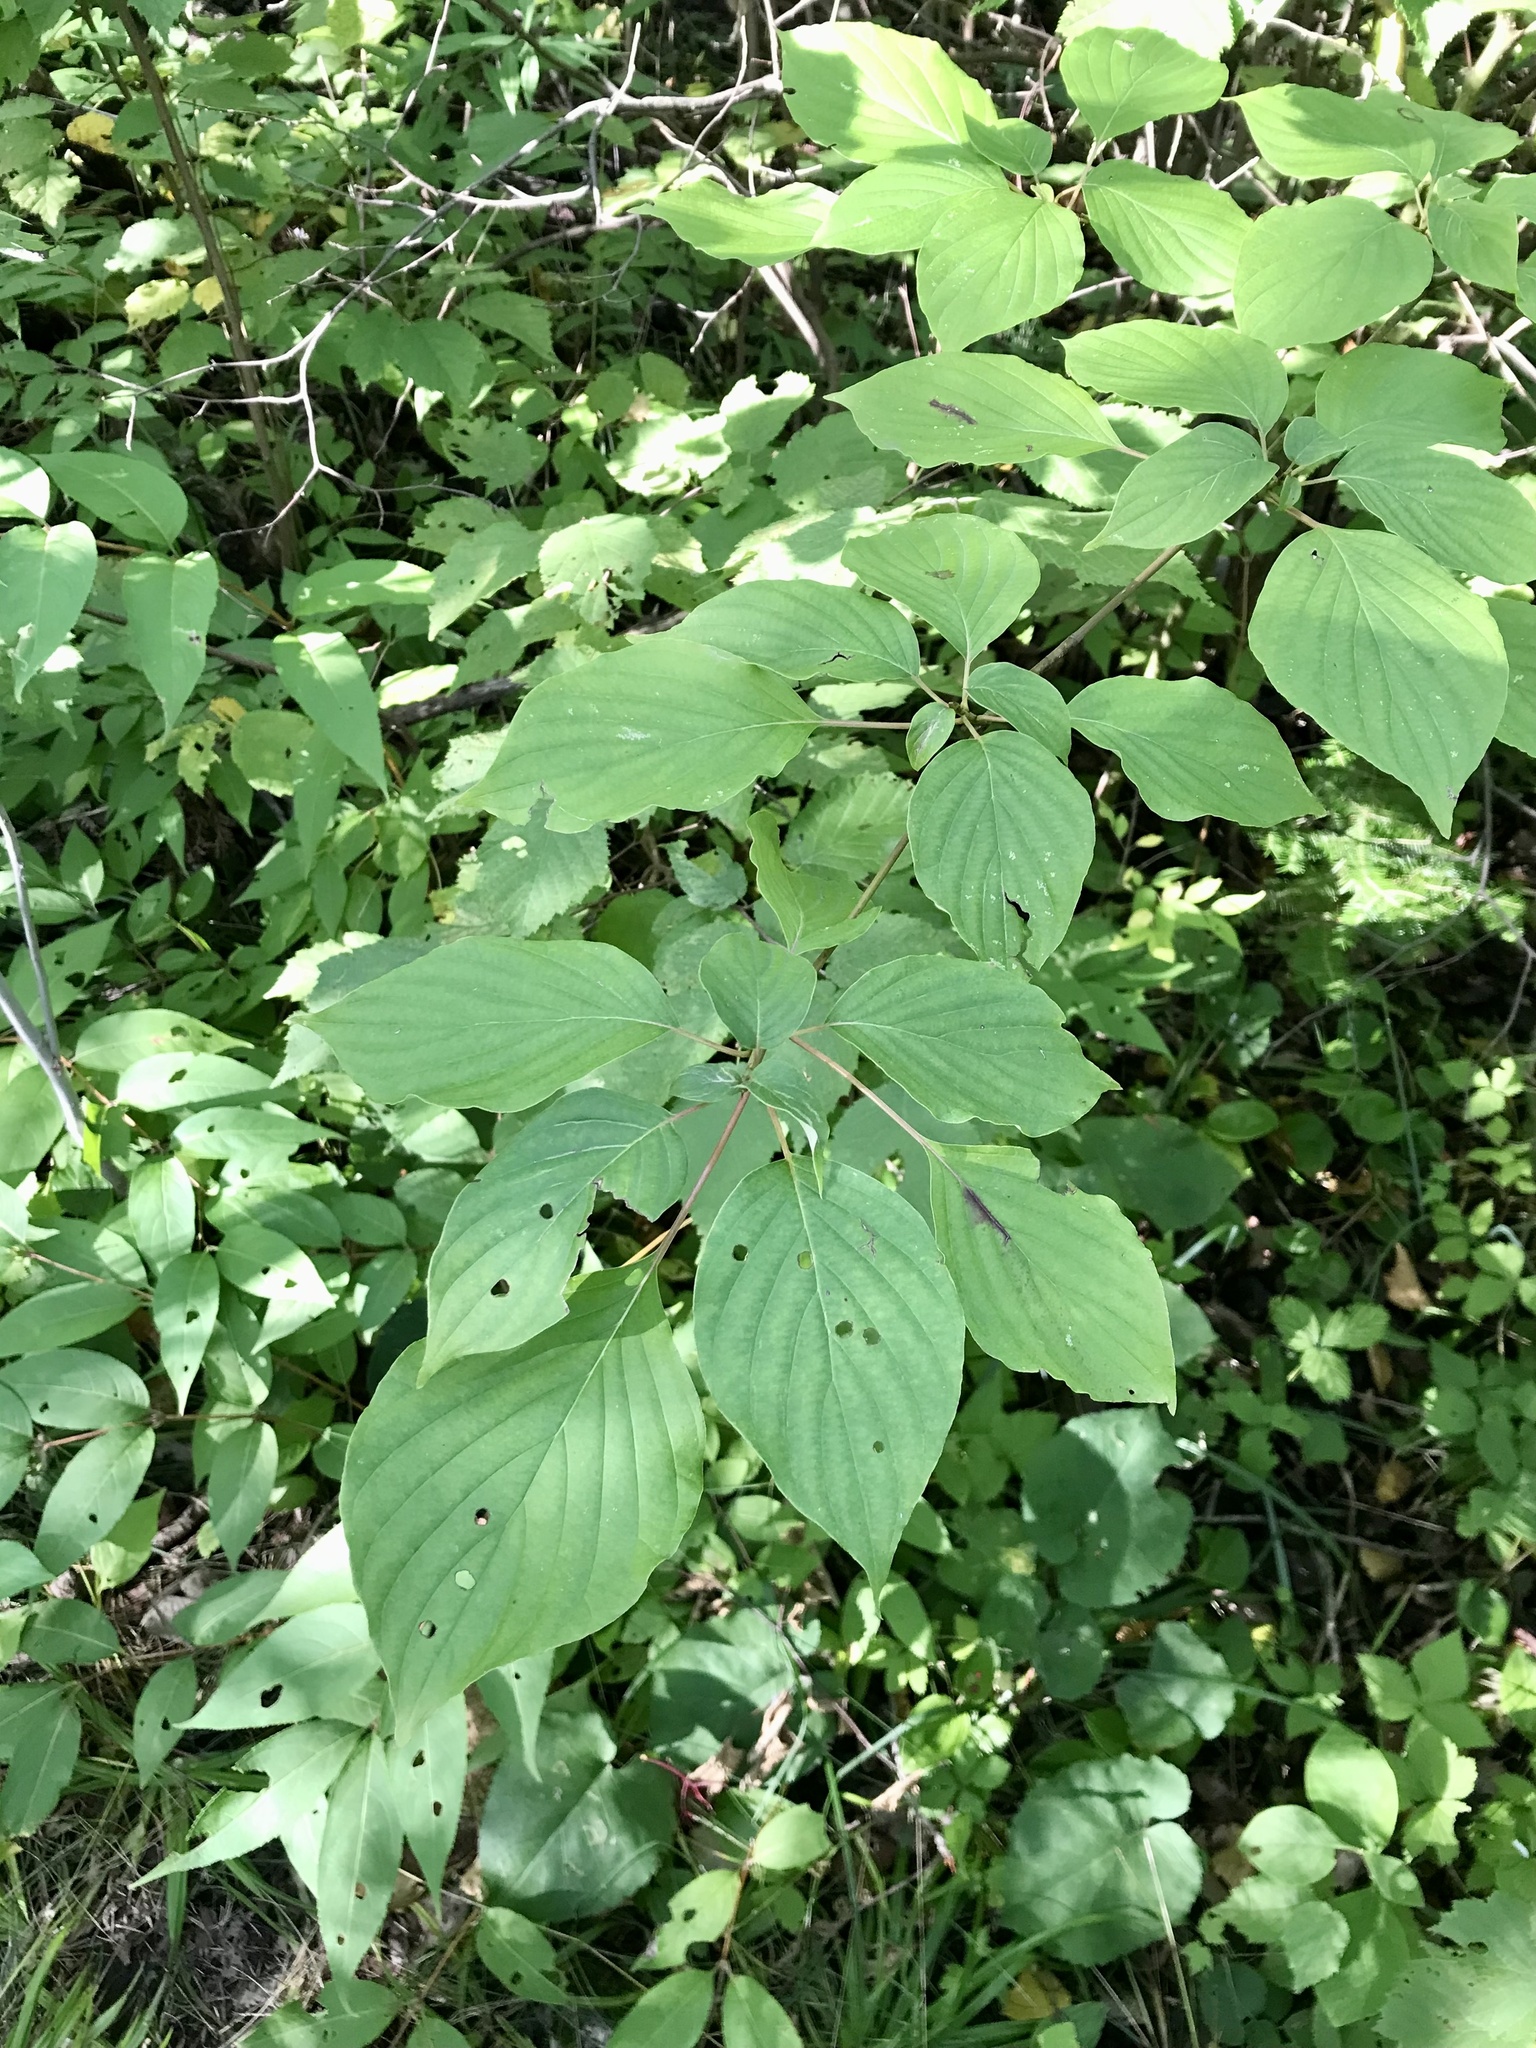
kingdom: Plantae
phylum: Tracheophyta
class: Magnoliopsida
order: Cornales
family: Cornaceae
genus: Cornus
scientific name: Cornus alternifolia
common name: Pagoda dogwood
